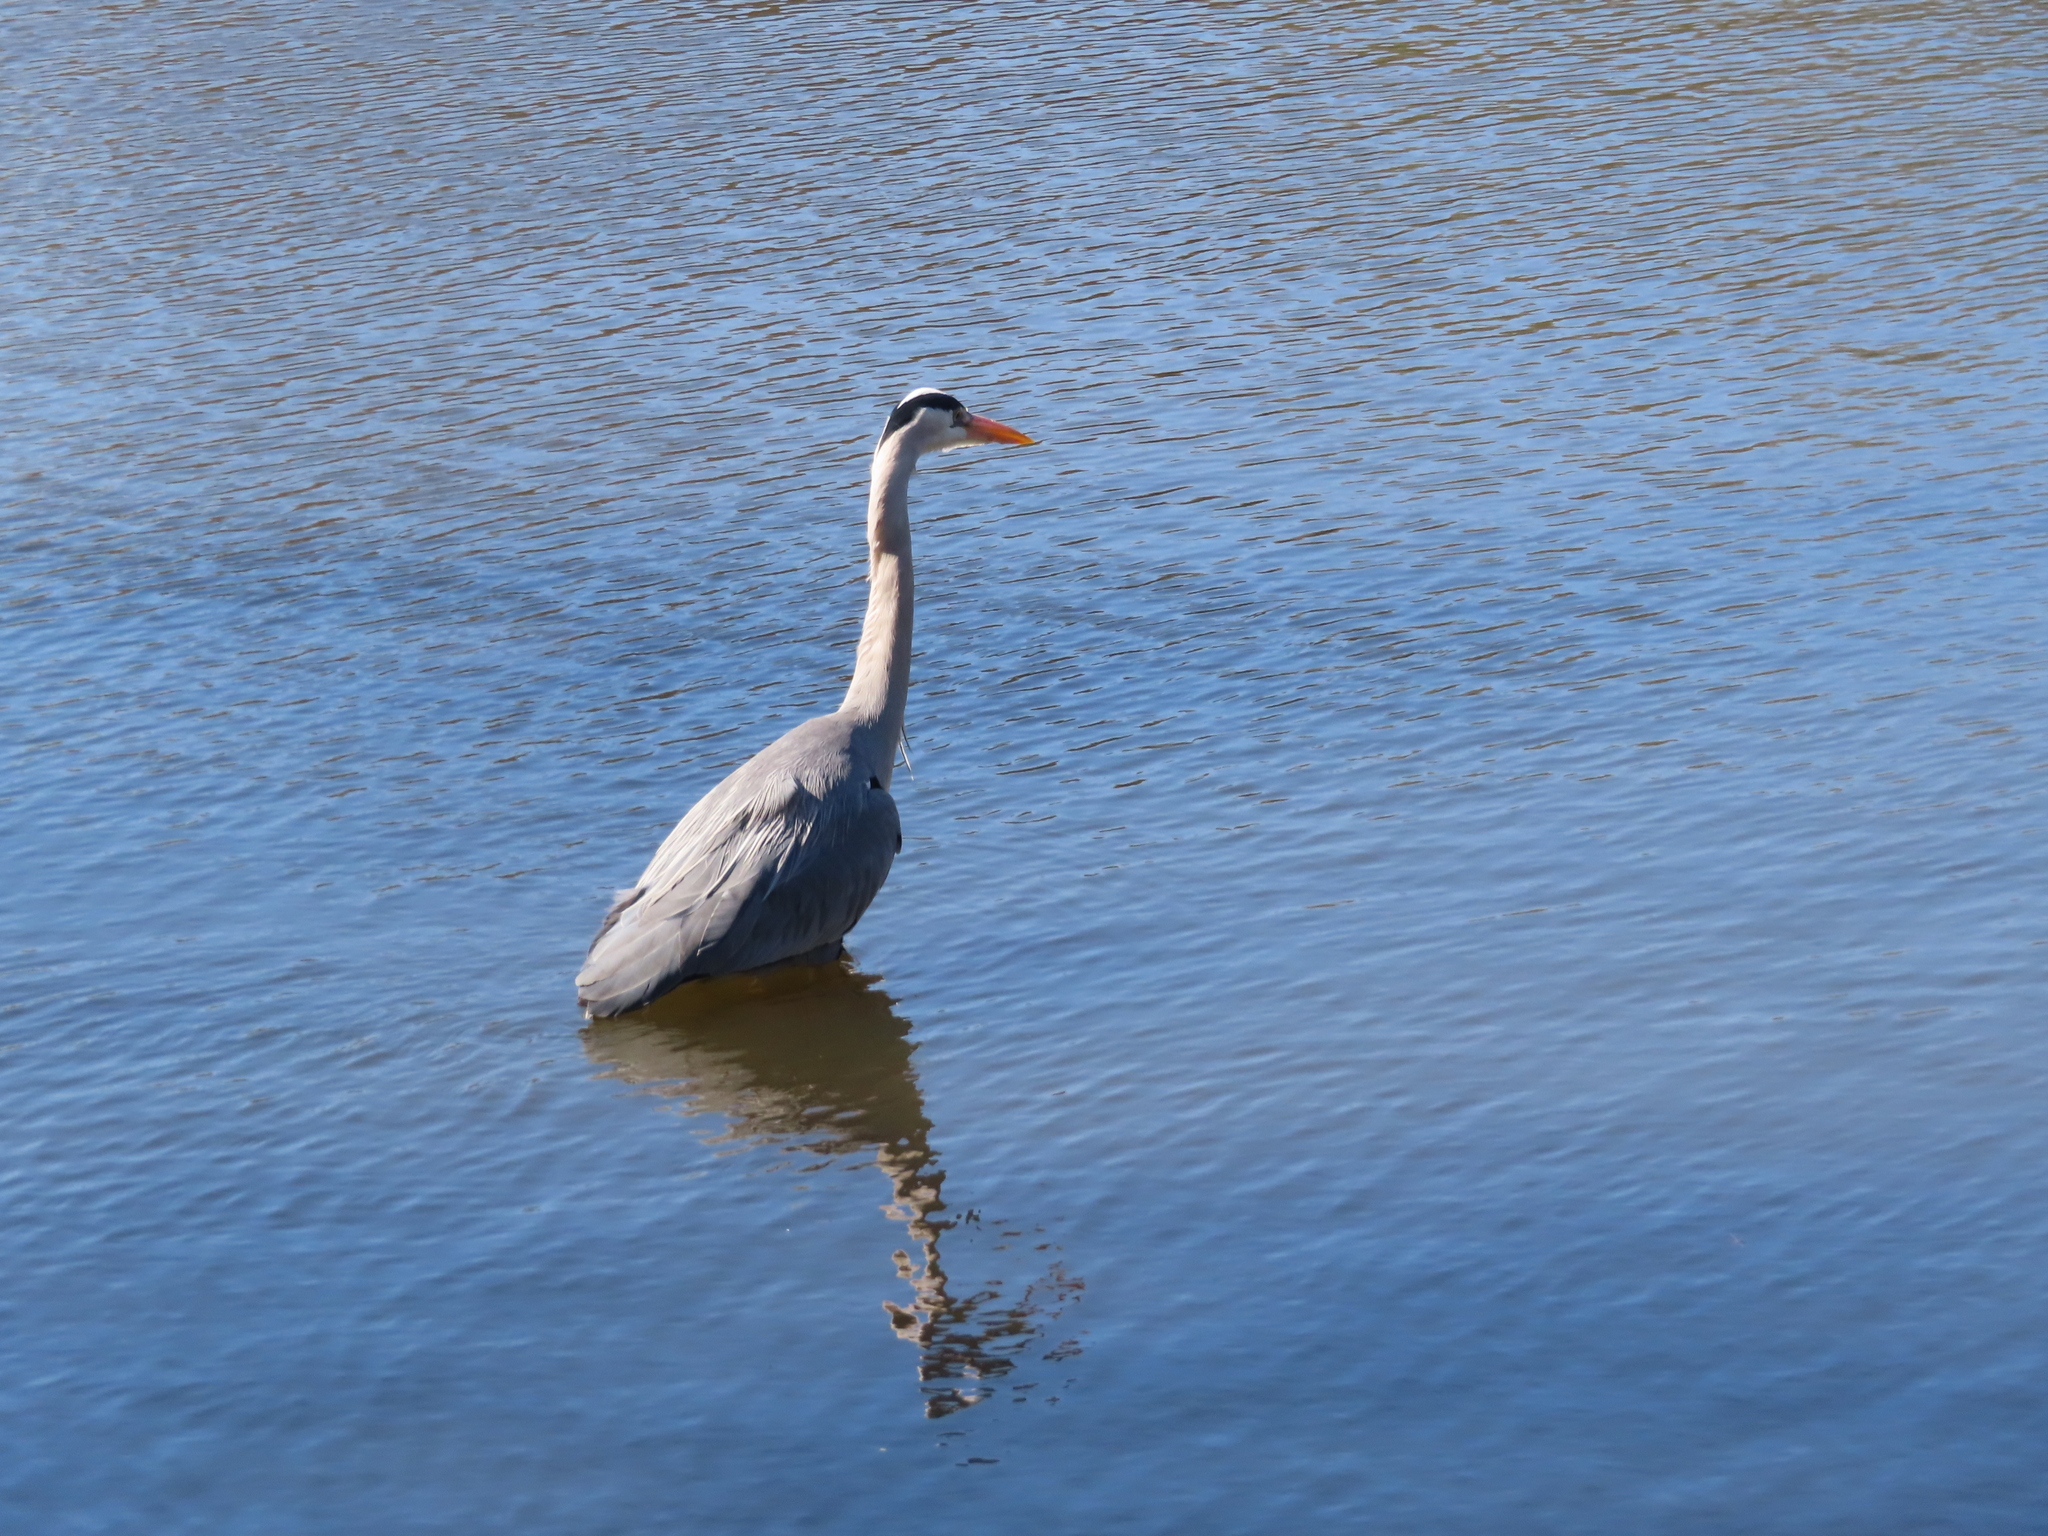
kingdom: Animalia
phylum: Chordata
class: Aves
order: Pelecaniformes
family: Ardeidae
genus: Ardea
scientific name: Ardea cinerea
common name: Grey heron
